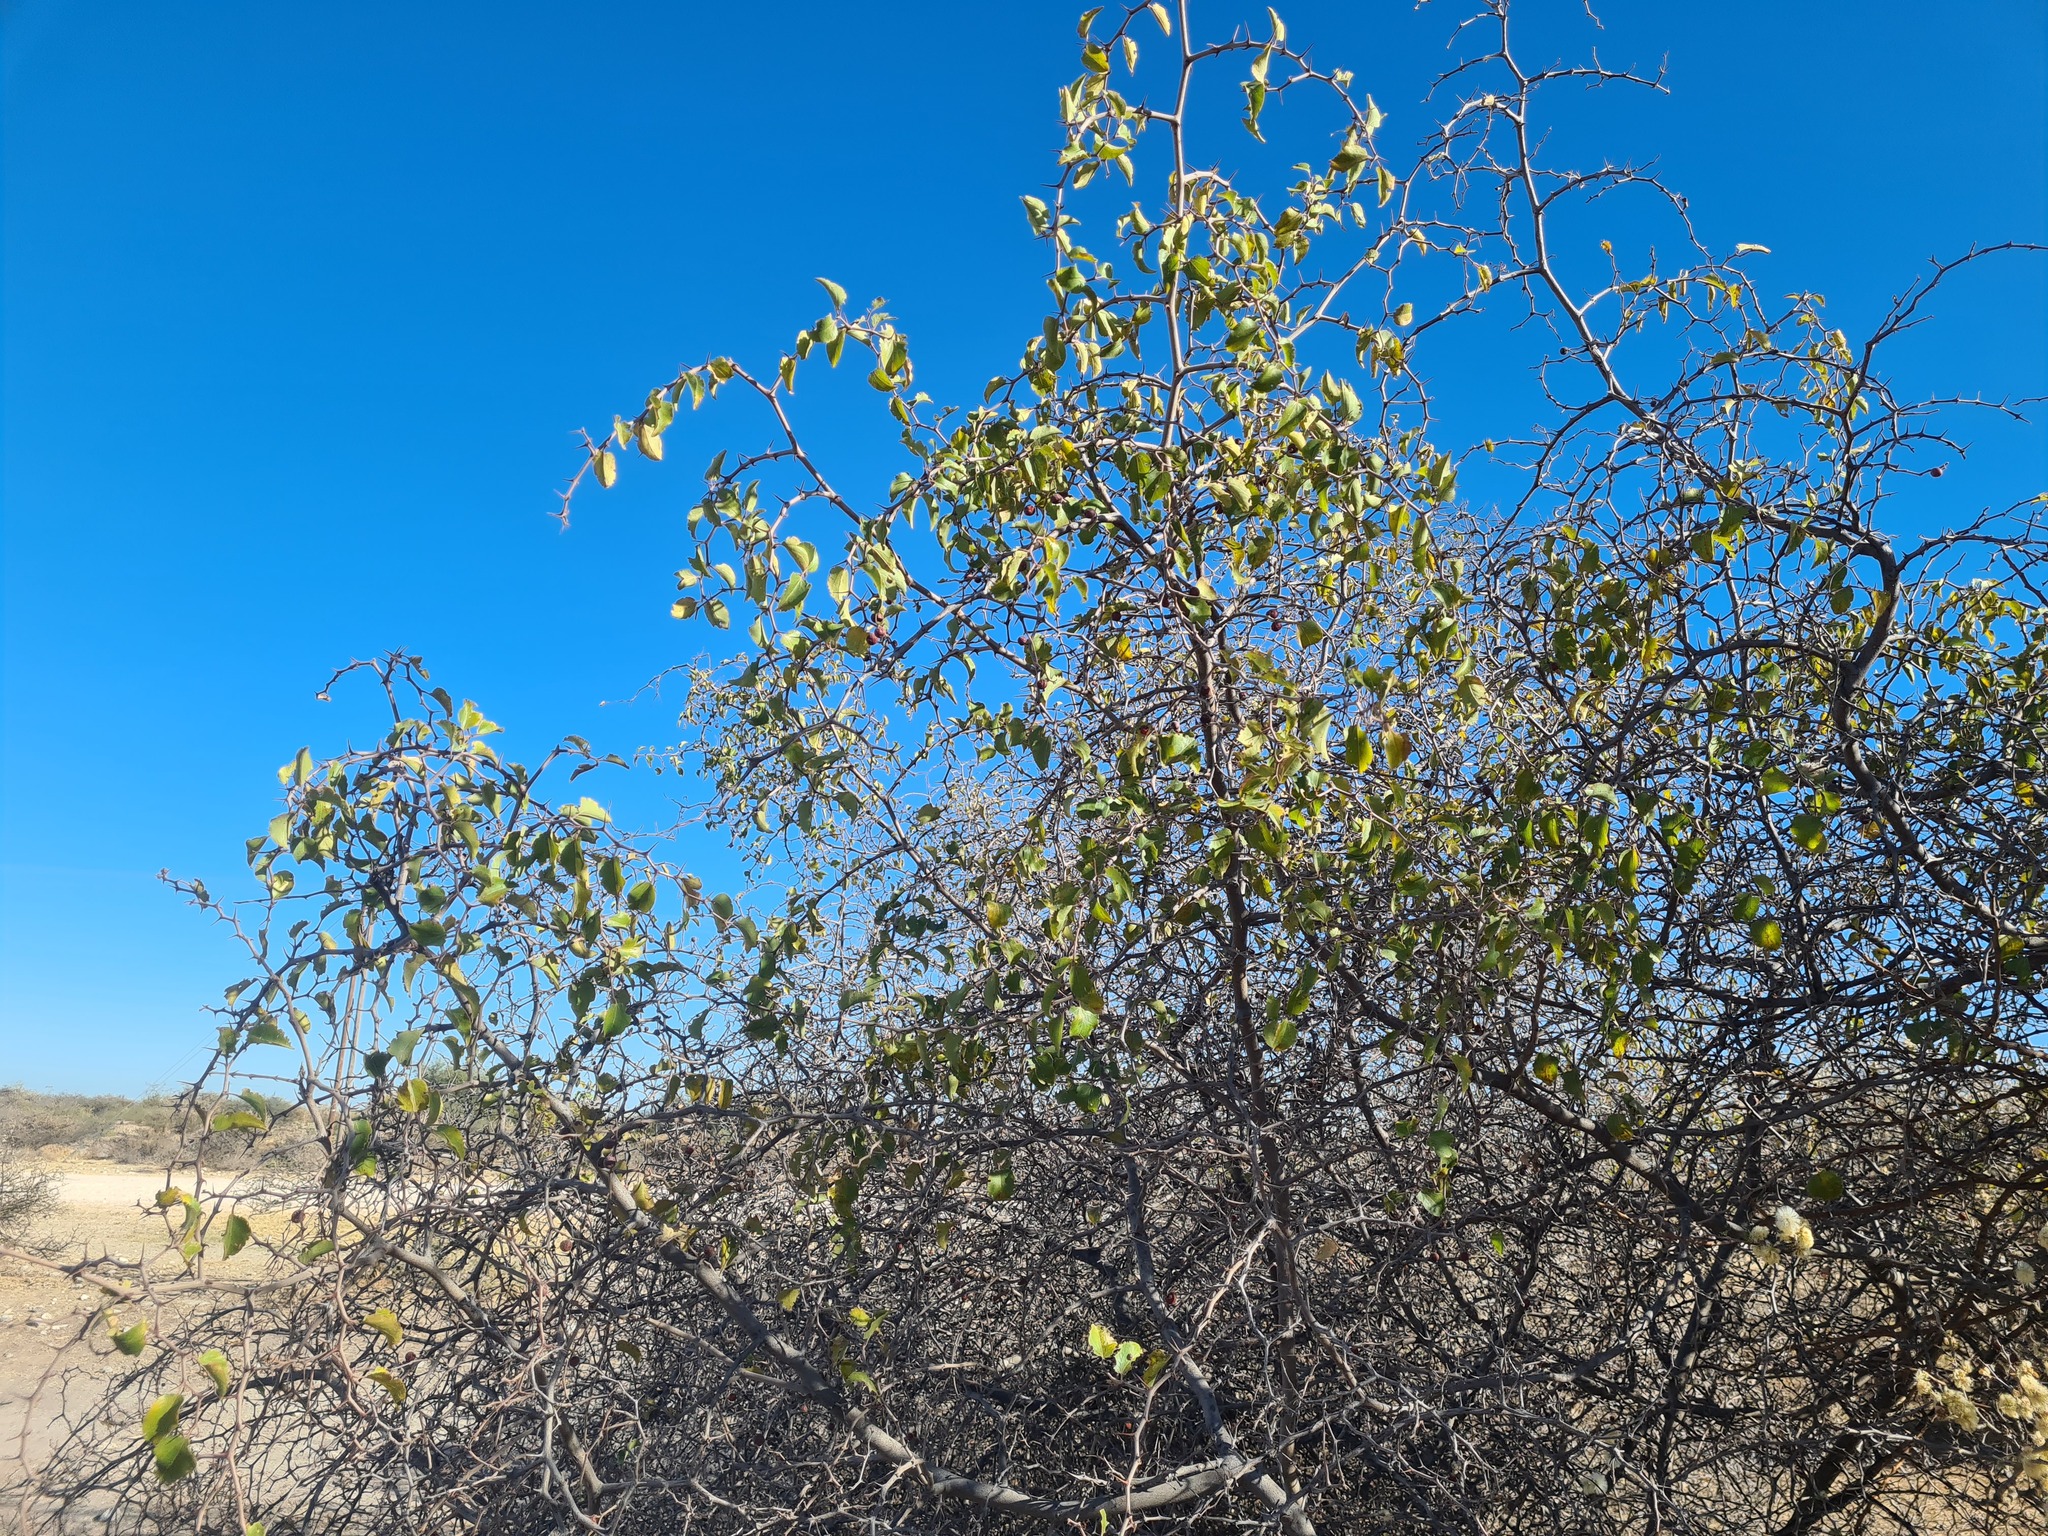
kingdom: Plantae
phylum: Tracheophyta
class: Magnoliopsida
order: Rosales
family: Rhamnaceae
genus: Ziziphus
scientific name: Ziziphus mucronata
